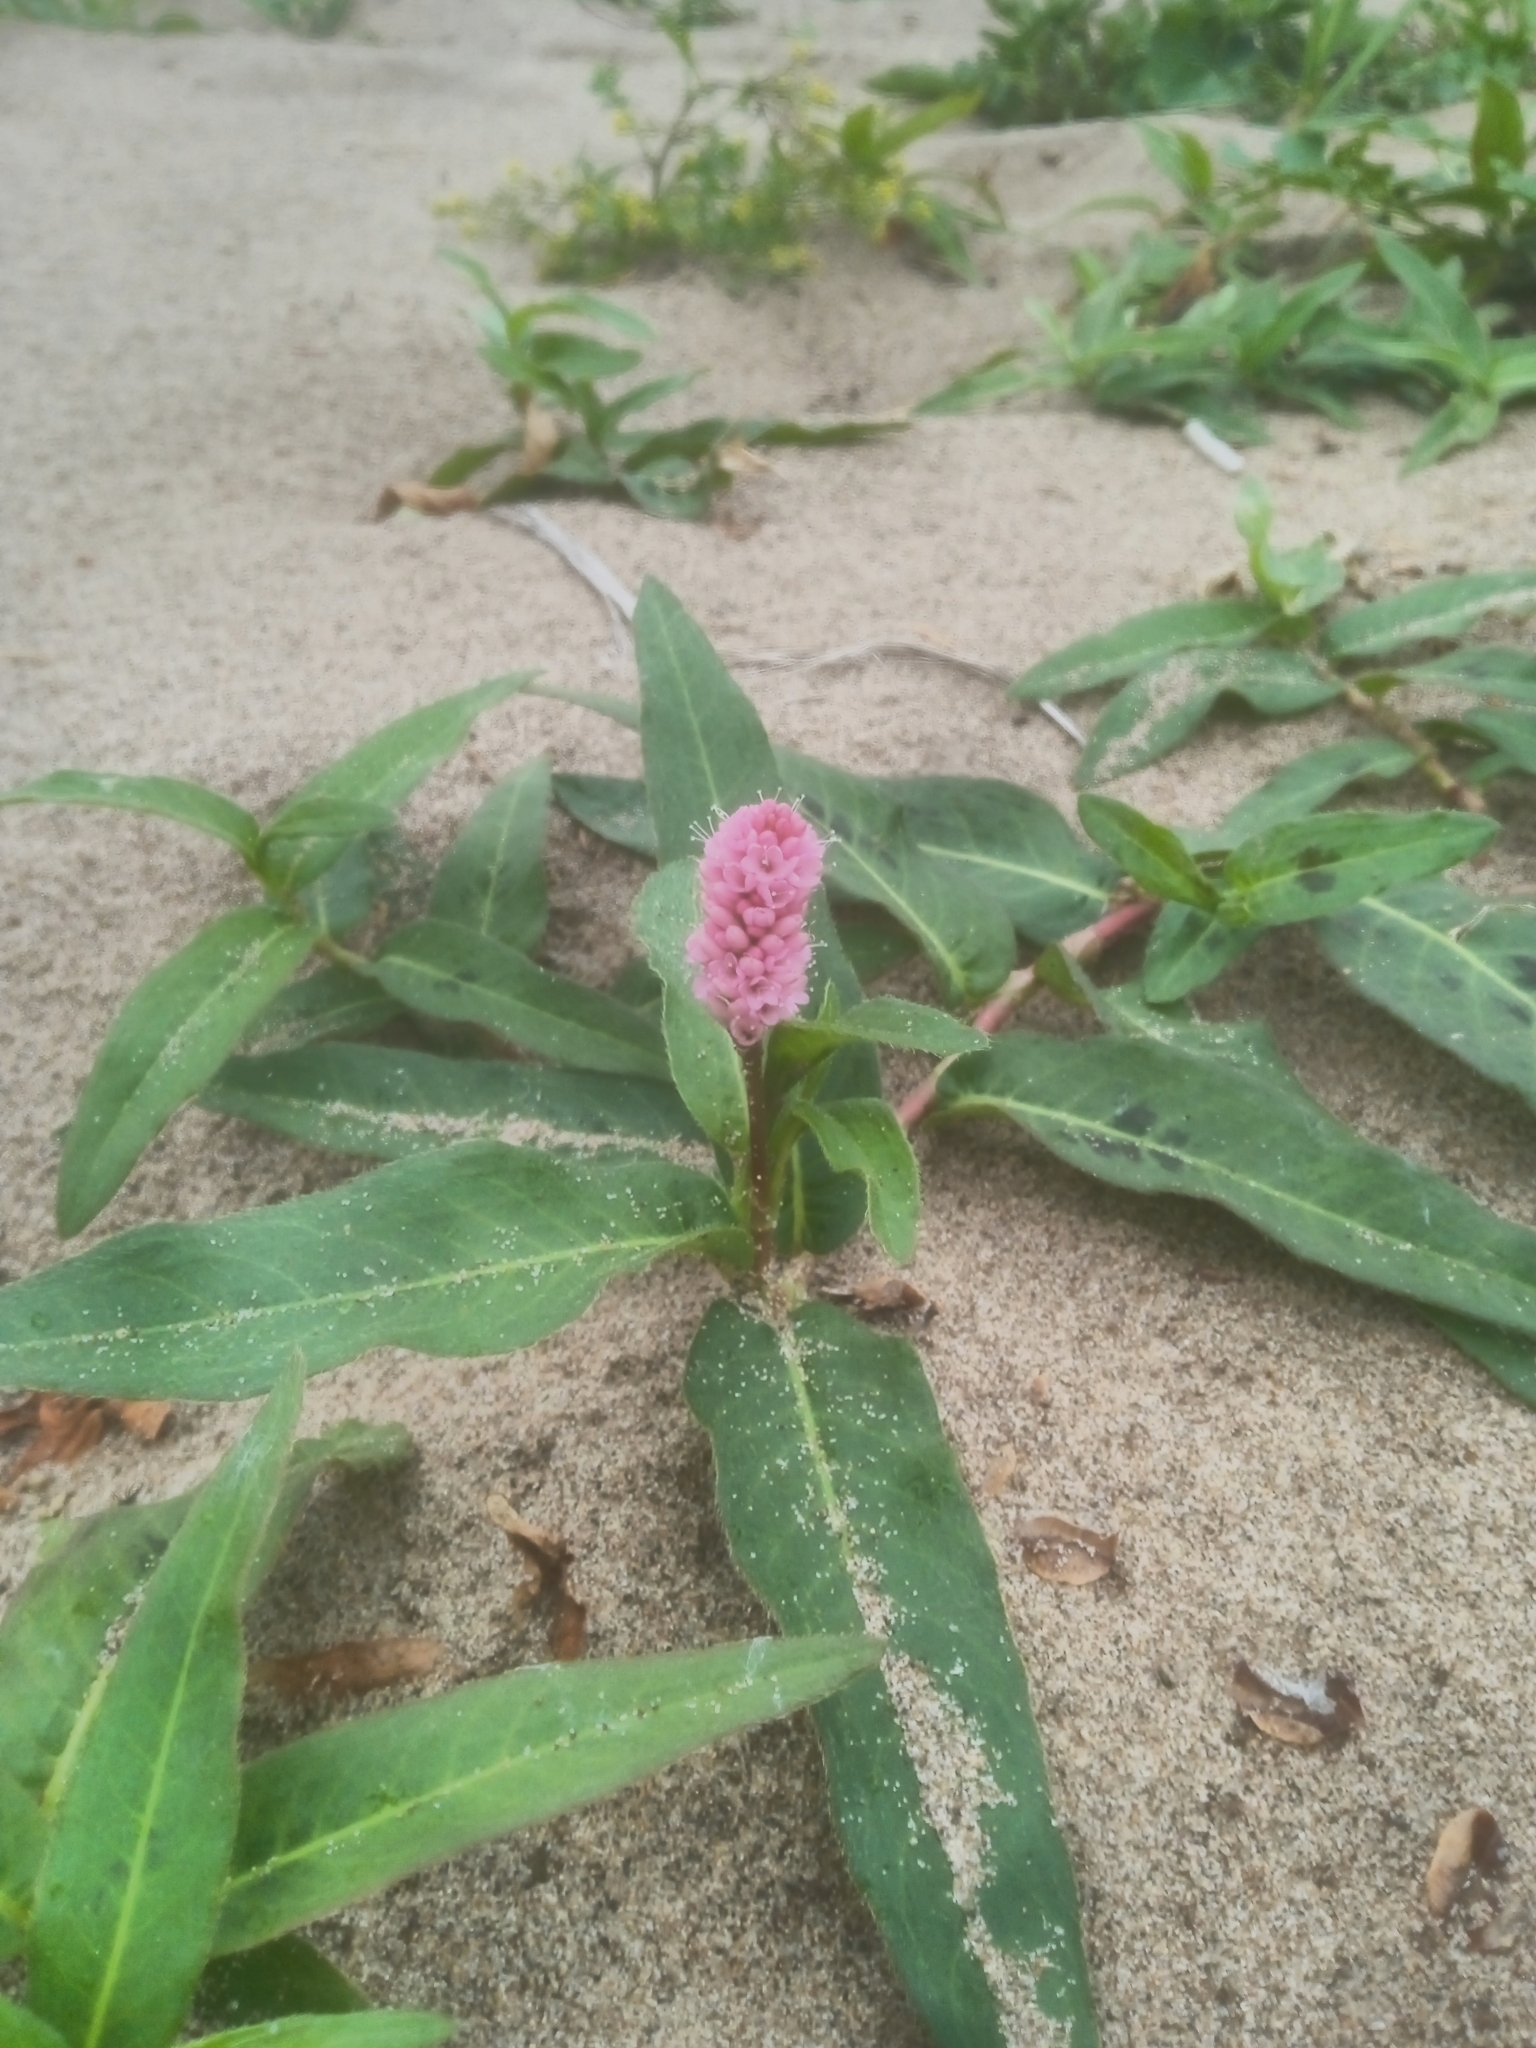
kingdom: Plantae
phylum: Tracheophyta
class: Magnoliopsida
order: Caryophyllales
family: Polygonaceae
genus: Persicaria
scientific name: Persicaria amphibia
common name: Amphibious bistort
